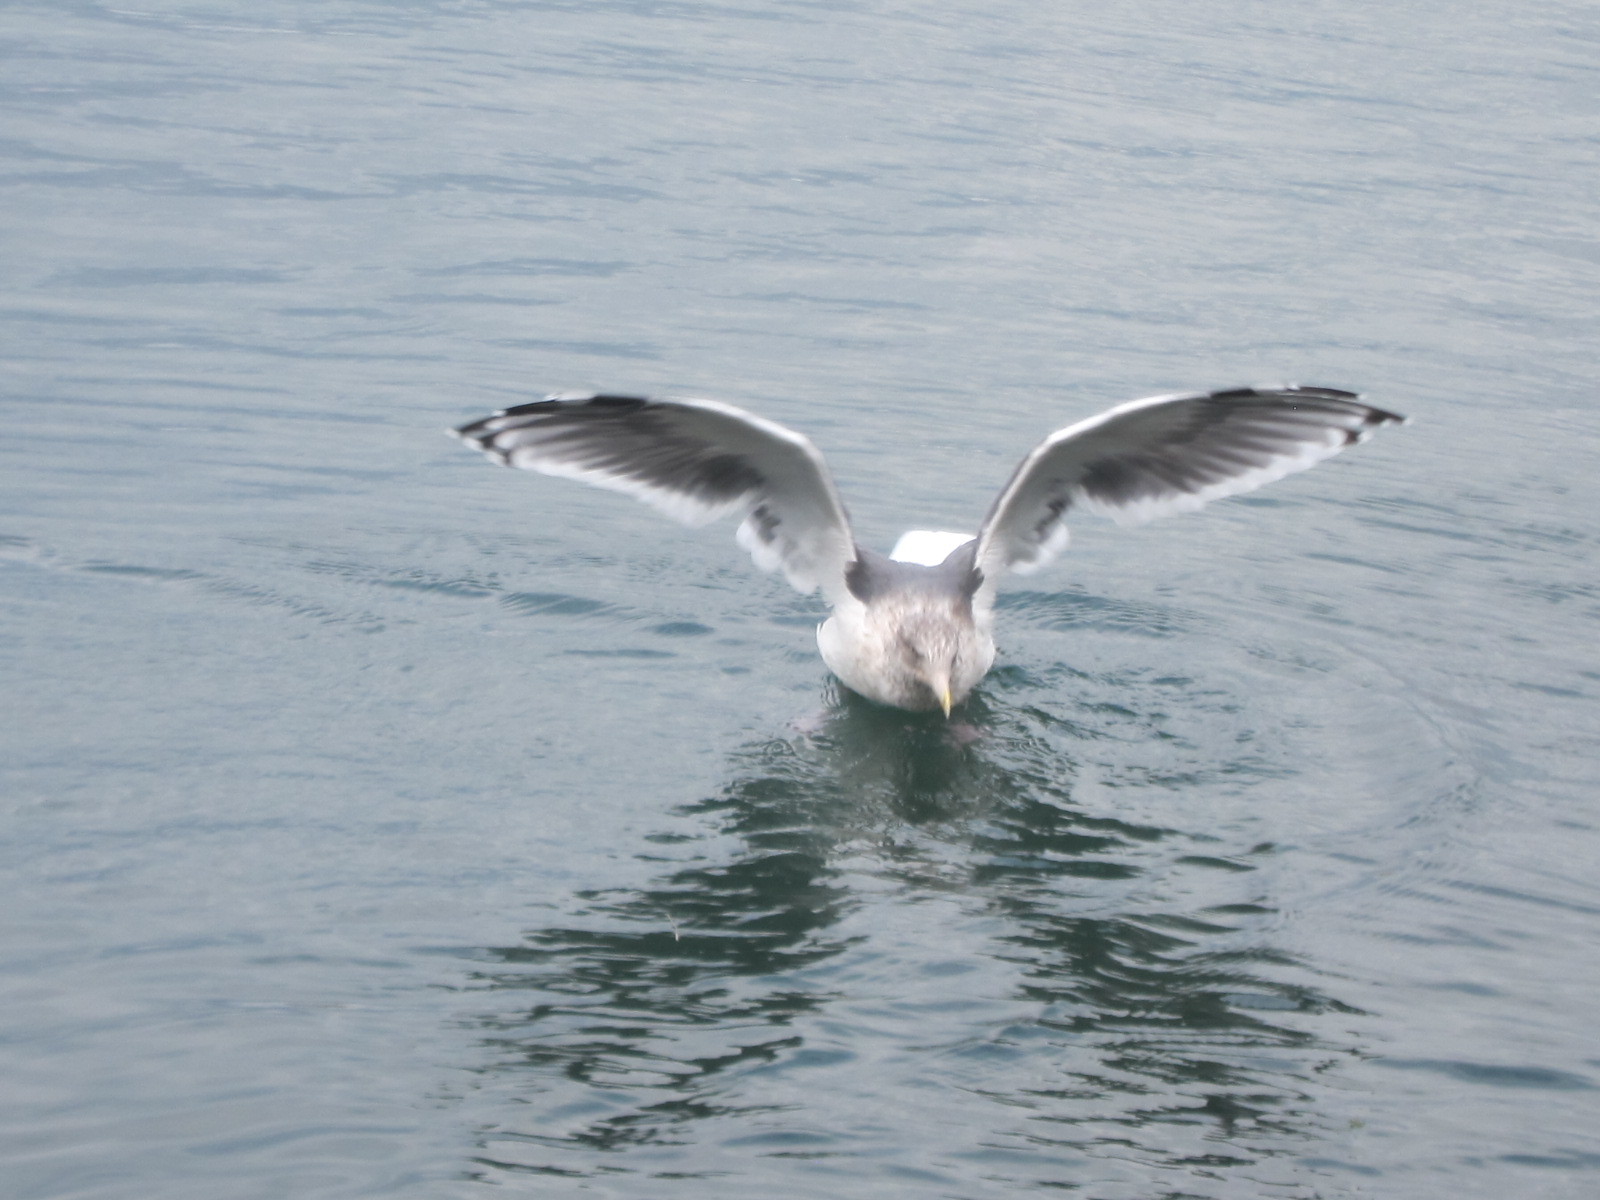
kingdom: Animalia
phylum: Chordata
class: Aves
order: Charadriiformes
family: Laridae
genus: Larus
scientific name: Larus argentatus
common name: Herring gull
